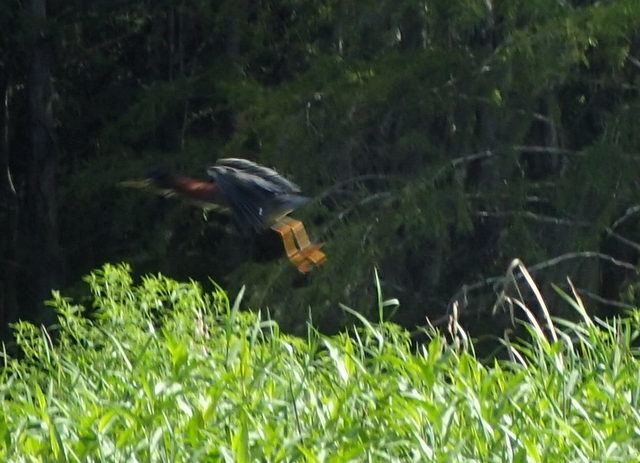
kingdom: Animalia
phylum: Chordata
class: Aves
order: Pelecaniformes
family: Ardeidae
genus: Butorides
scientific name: Butorides virescens
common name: Green heron
